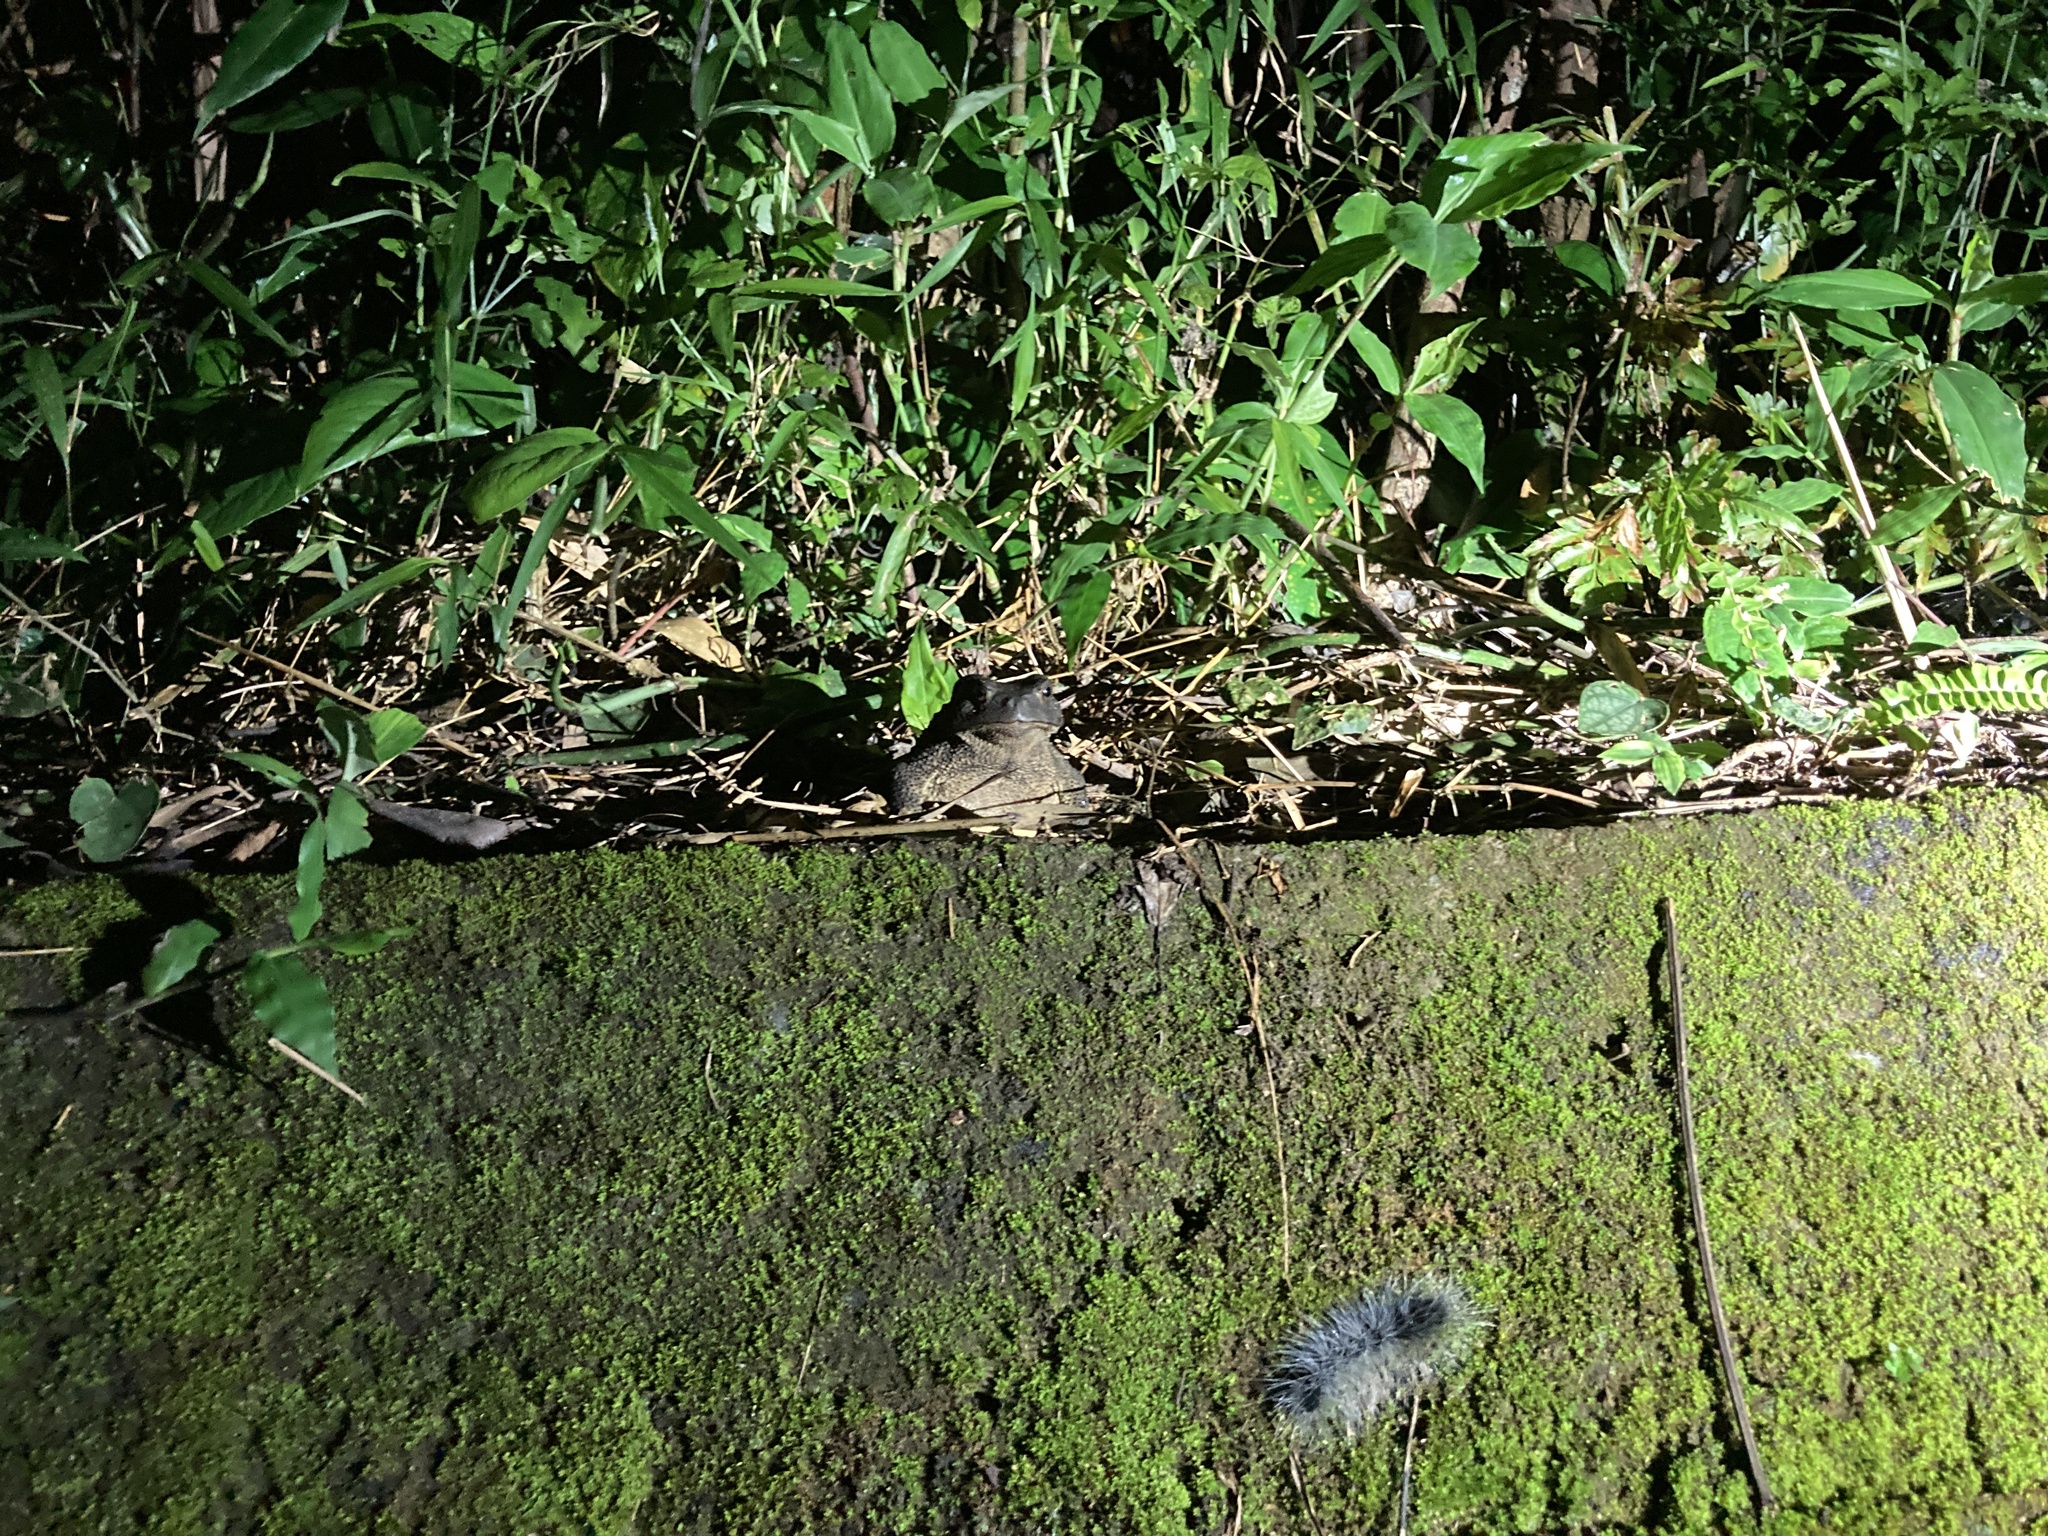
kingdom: Animalia
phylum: Chordata
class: Amphibia
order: Anura
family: Bufonidae
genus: Bufo
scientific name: Bufo bankorensis
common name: Bankor toad
